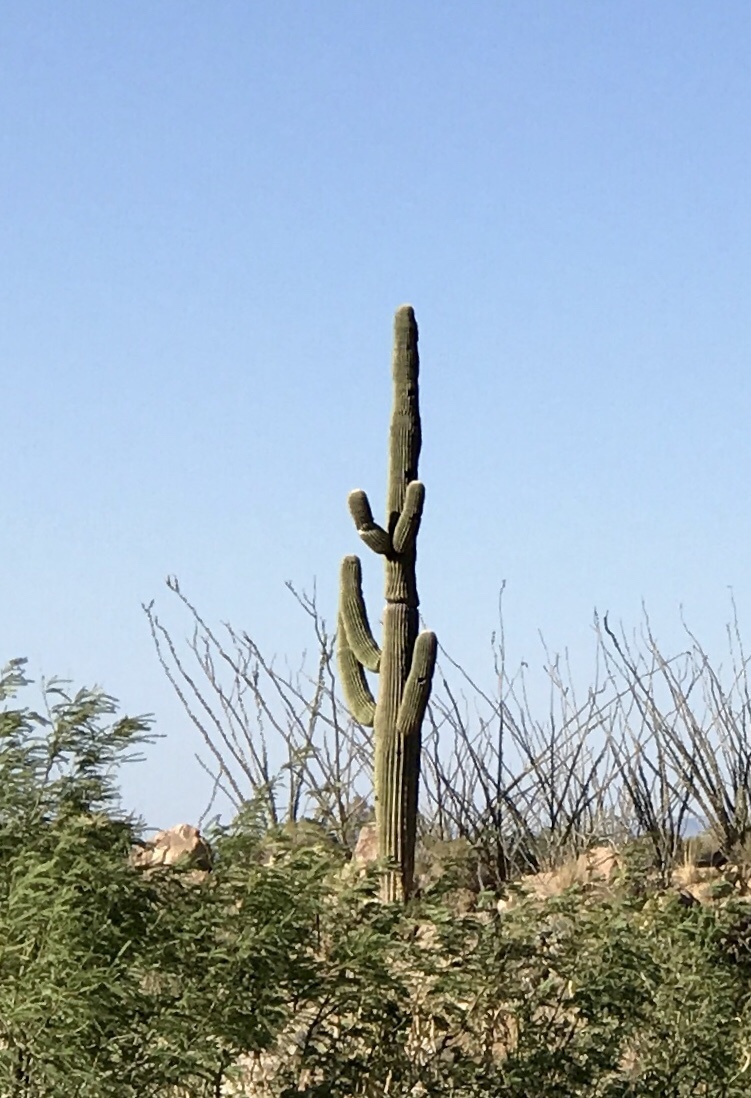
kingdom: Plantae
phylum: Tracheophyta
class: Magnoliopsida
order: Caryophyllales
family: Cactaceae
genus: Carnegiea
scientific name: Carnegiea gigantea
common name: Saguaro
